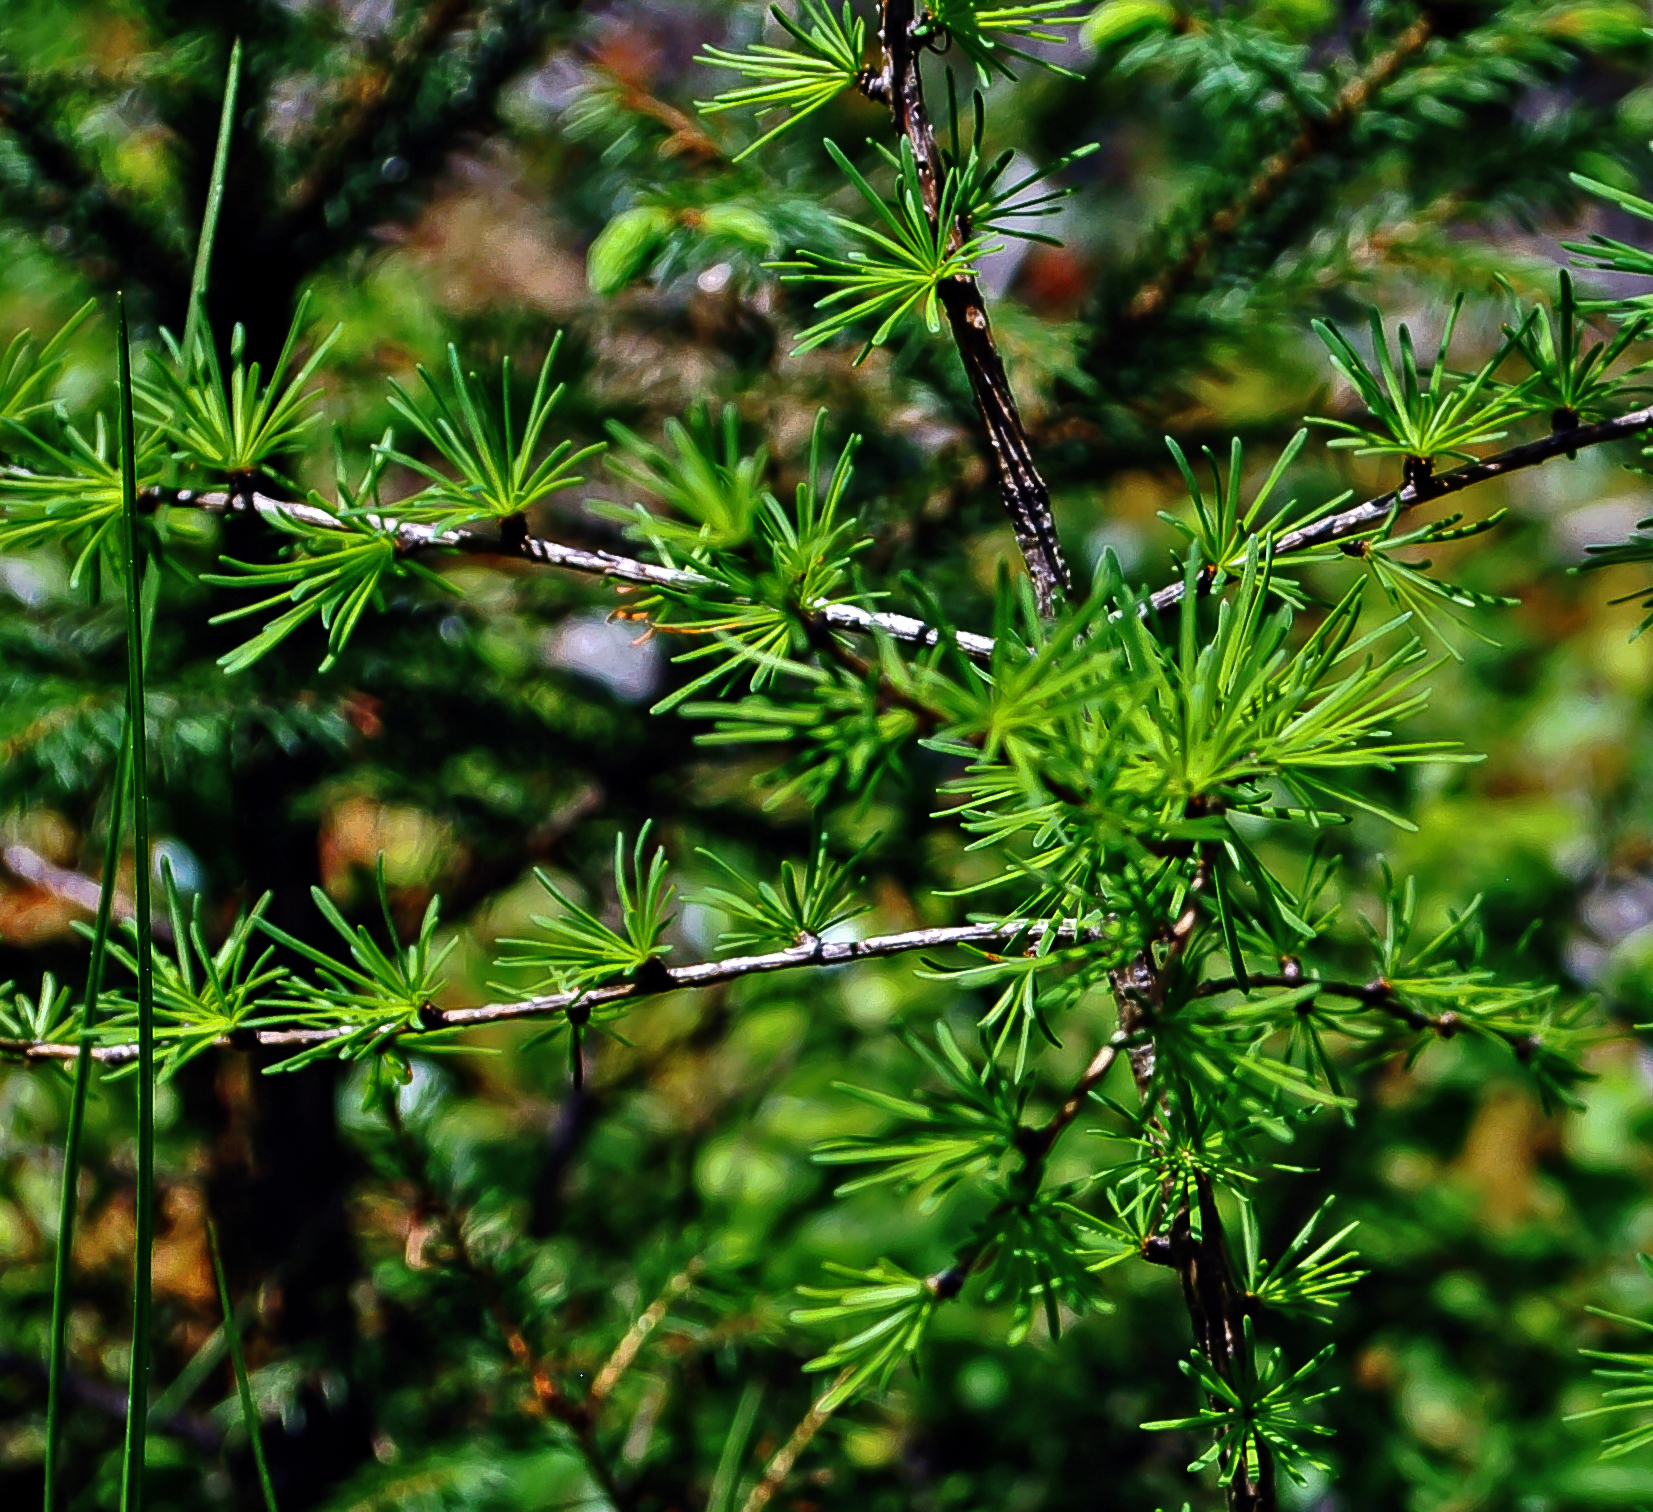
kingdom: Plantae
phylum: Tracheophyta
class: Pinopsida
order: Pinales
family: Pinaceae
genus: Larix
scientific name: Larix laricina
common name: American larch
